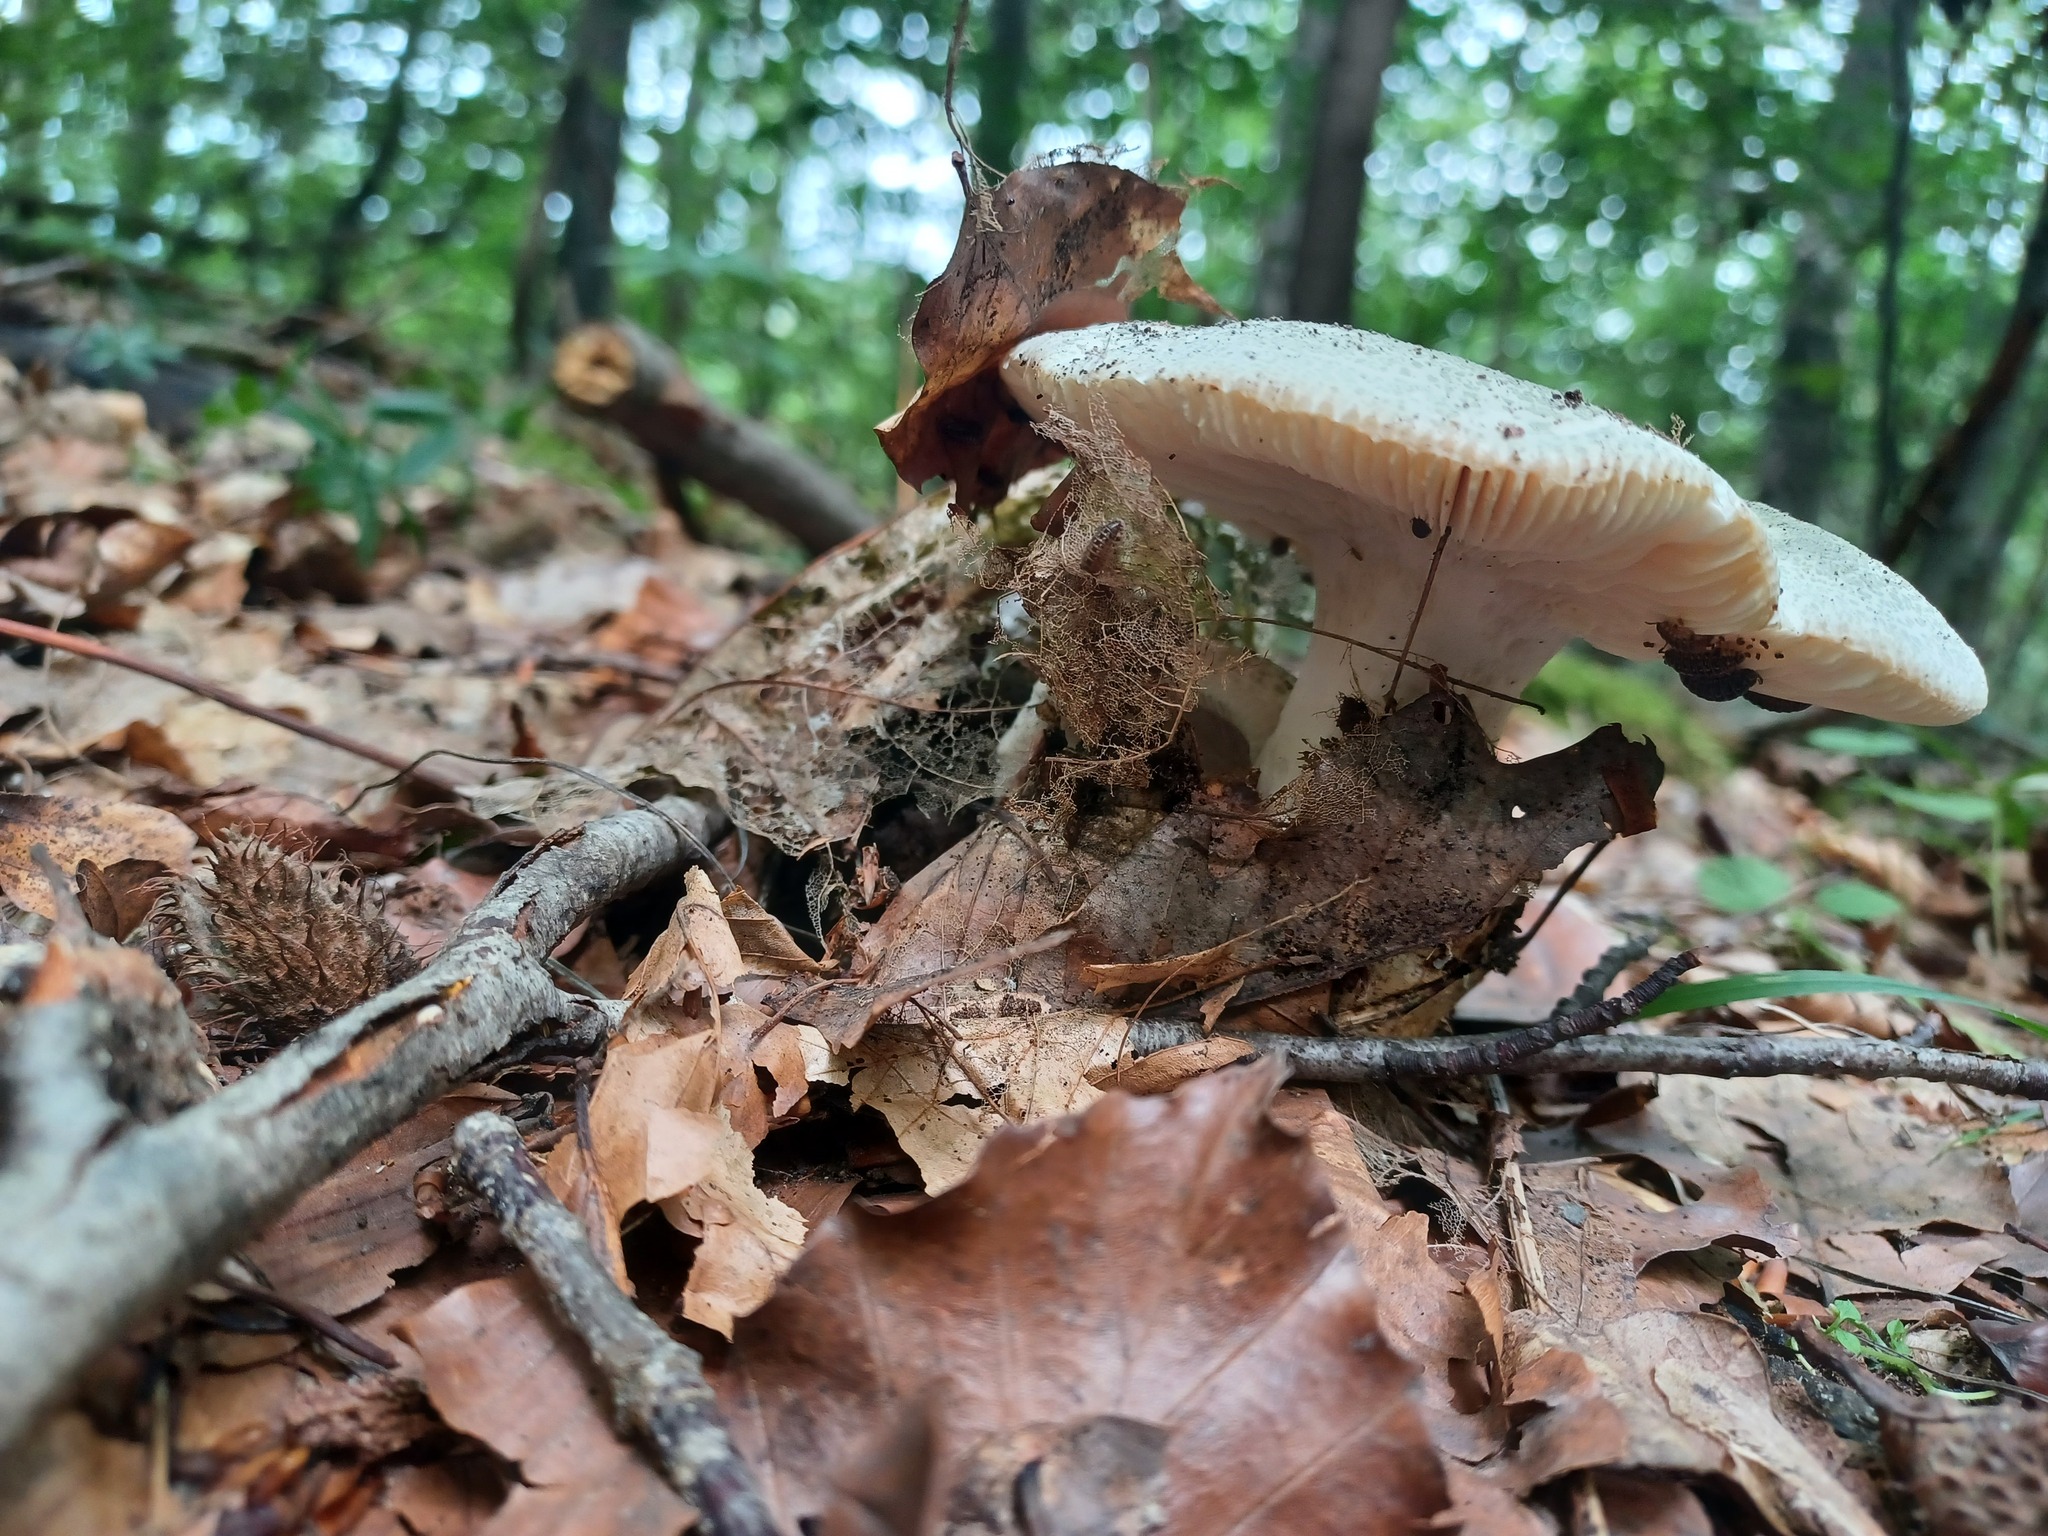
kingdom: Fungi
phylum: Basidiomycota
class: Agaricomycetes
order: Russulales
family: Russulaceae
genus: Russula
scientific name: Russula virescens
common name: Greencracked brittlegill
